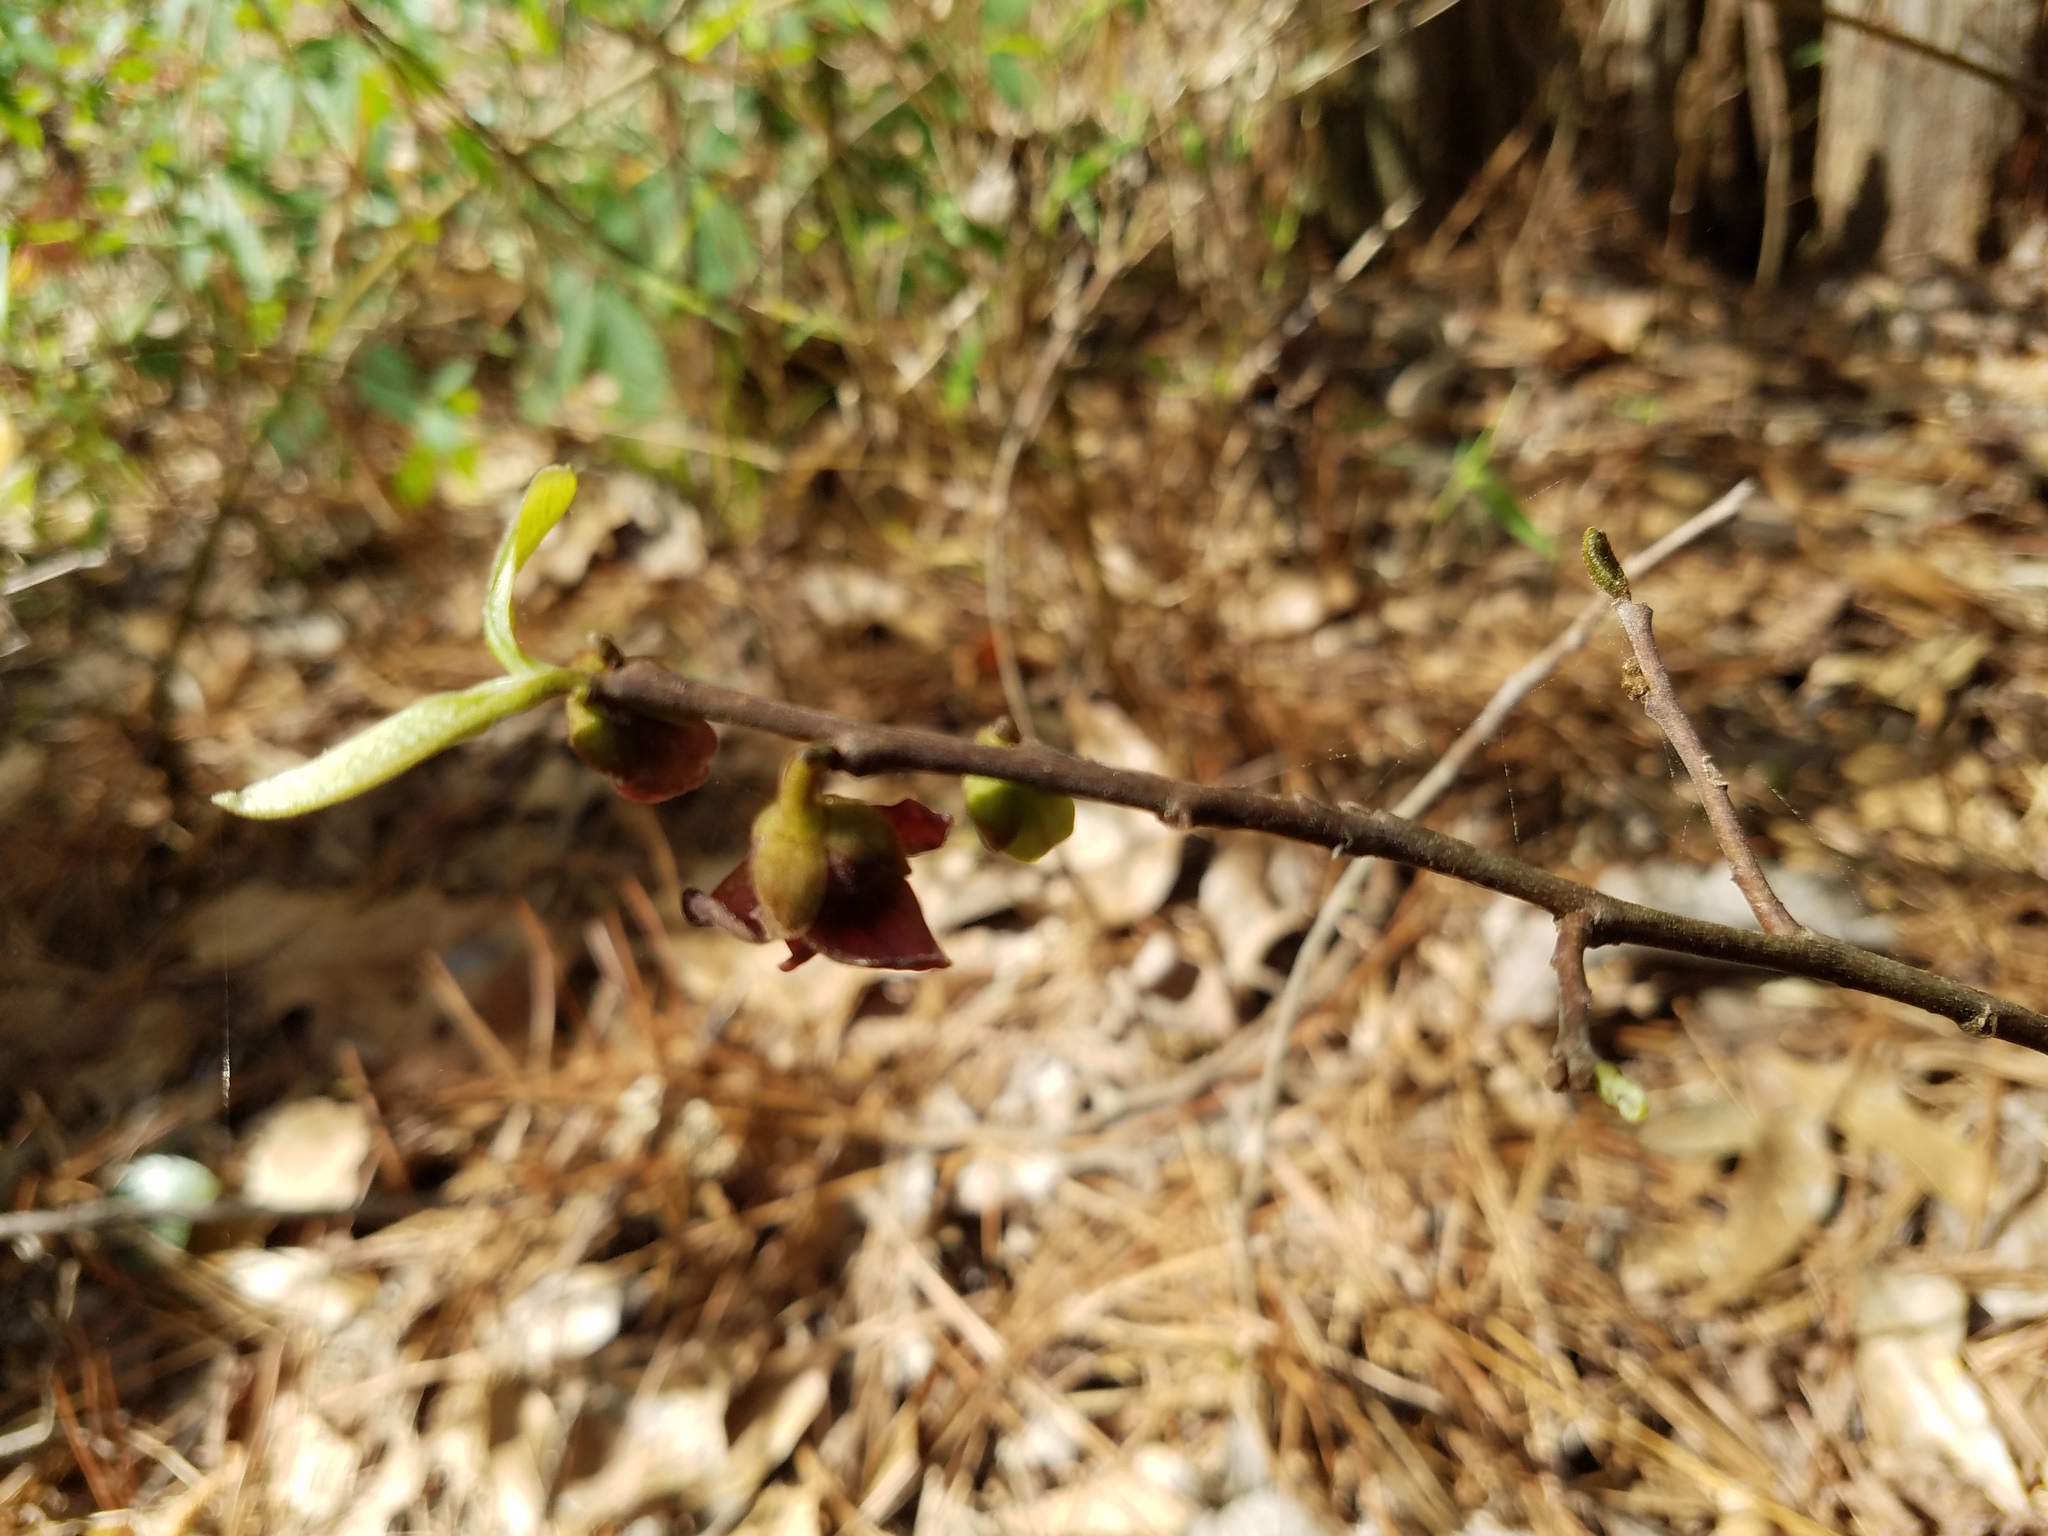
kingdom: Plantae
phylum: Tracheophyta
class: Magnoliopsida
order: Magnoliales
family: Annonaceae
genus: Asimina
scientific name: Asimina parviflora
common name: Dwarf pawpaw
